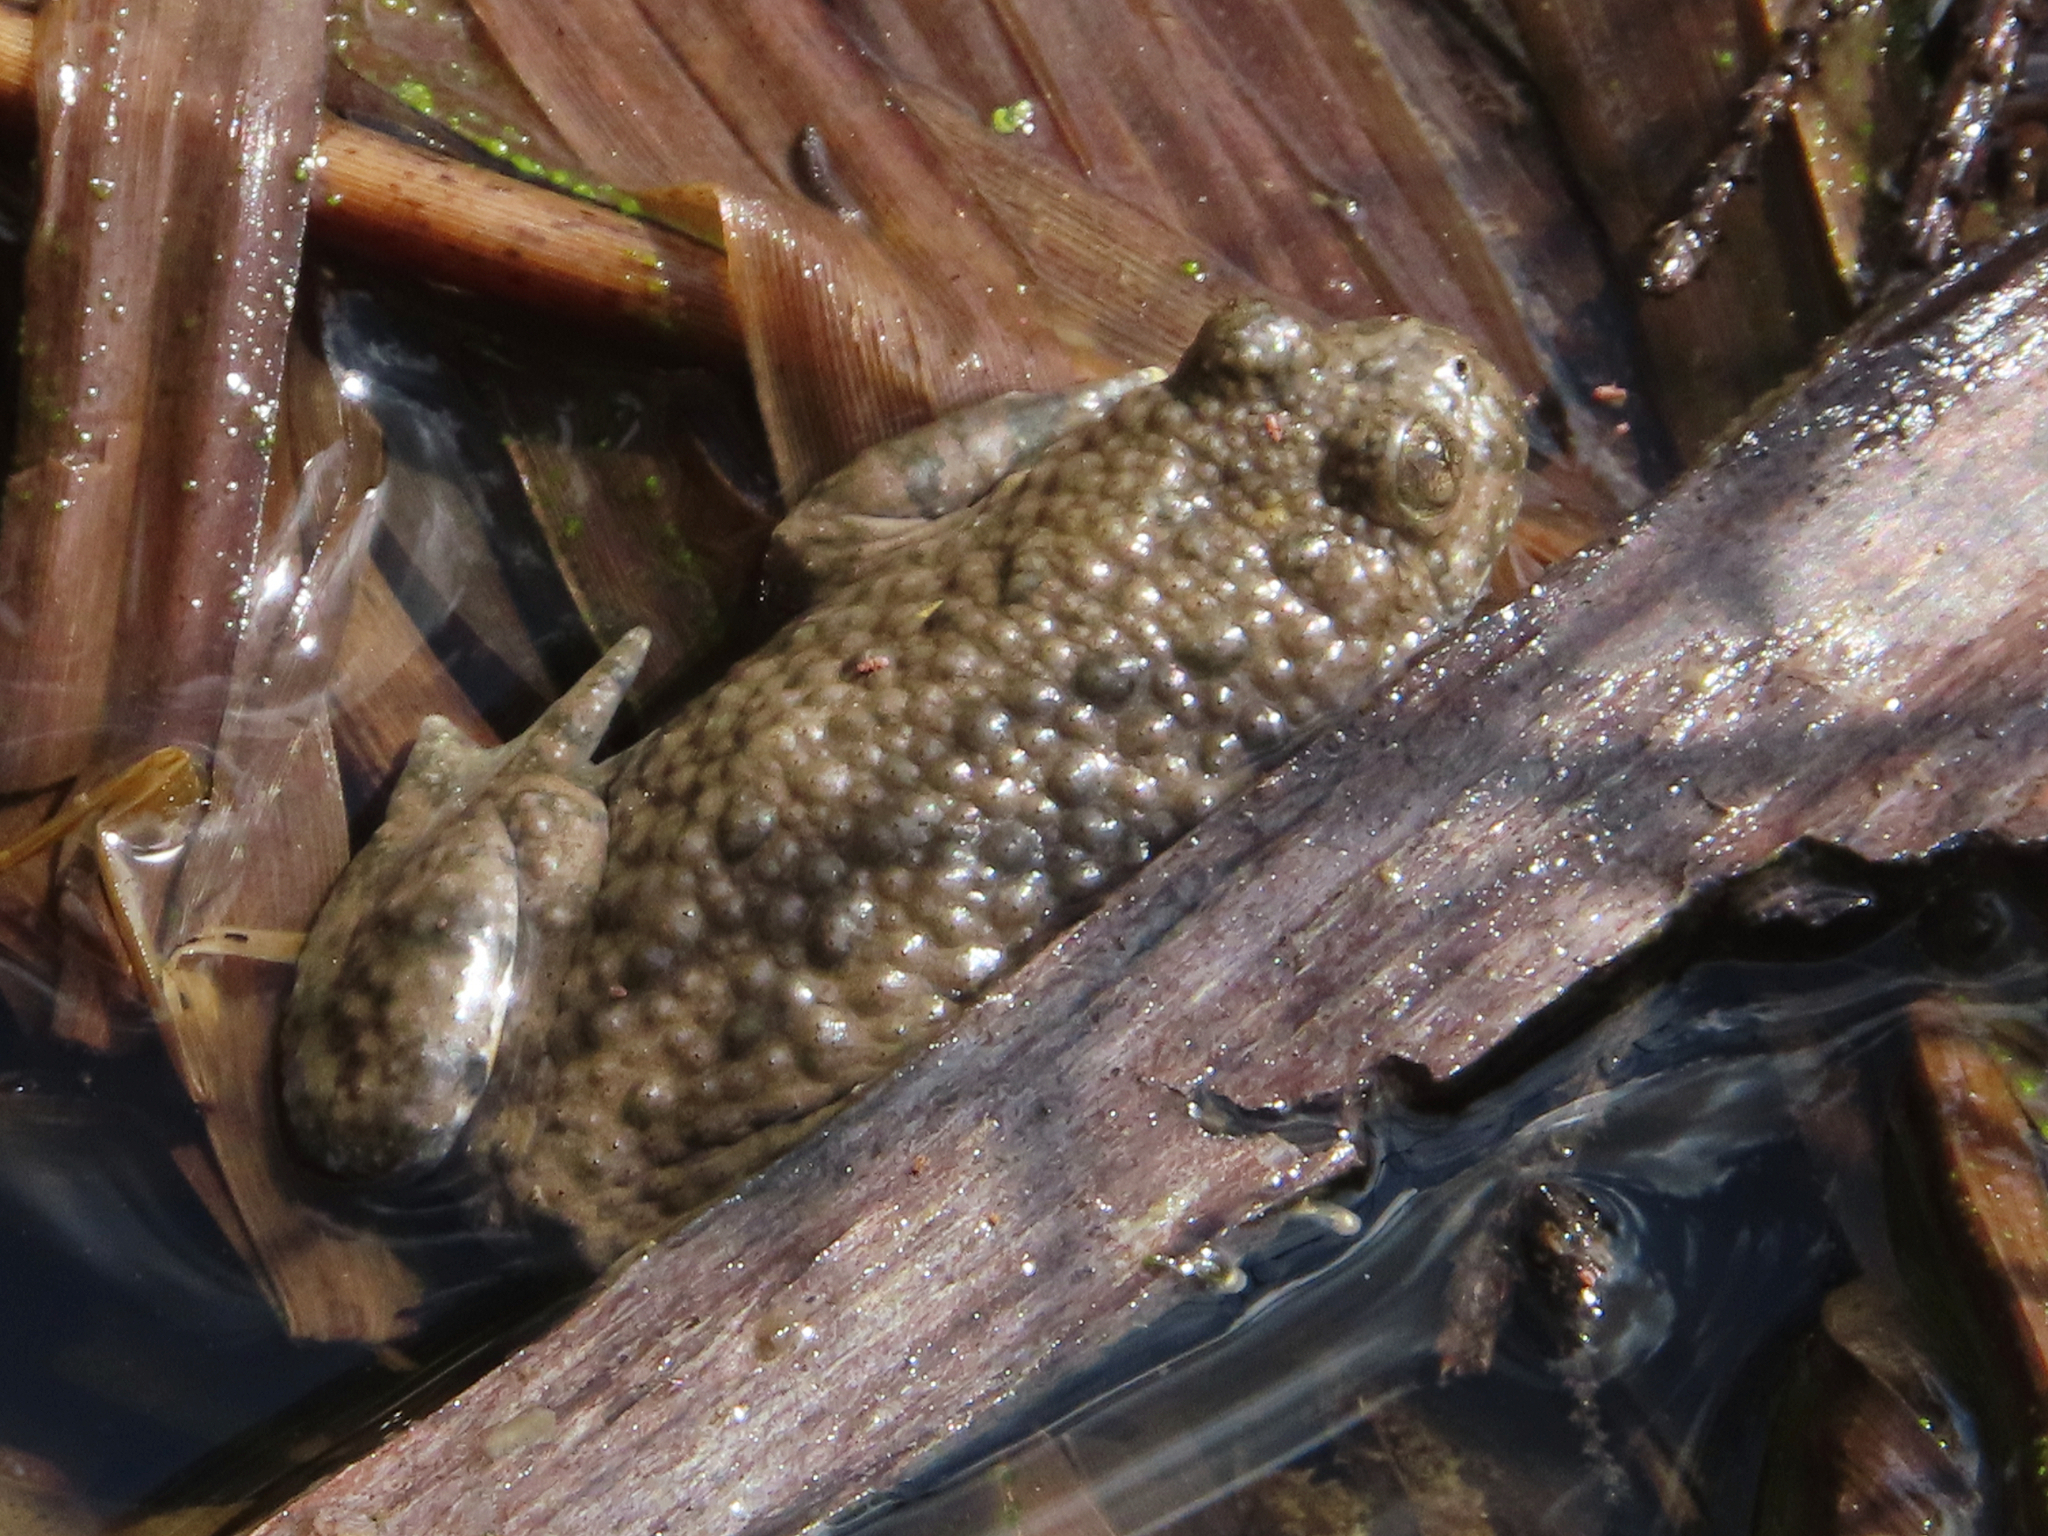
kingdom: Animalia
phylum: Chordata
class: Amphibia
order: Anura
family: Bombinatoridae
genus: Bombina
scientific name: Bombina variegata
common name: Yellow-bellied toad
